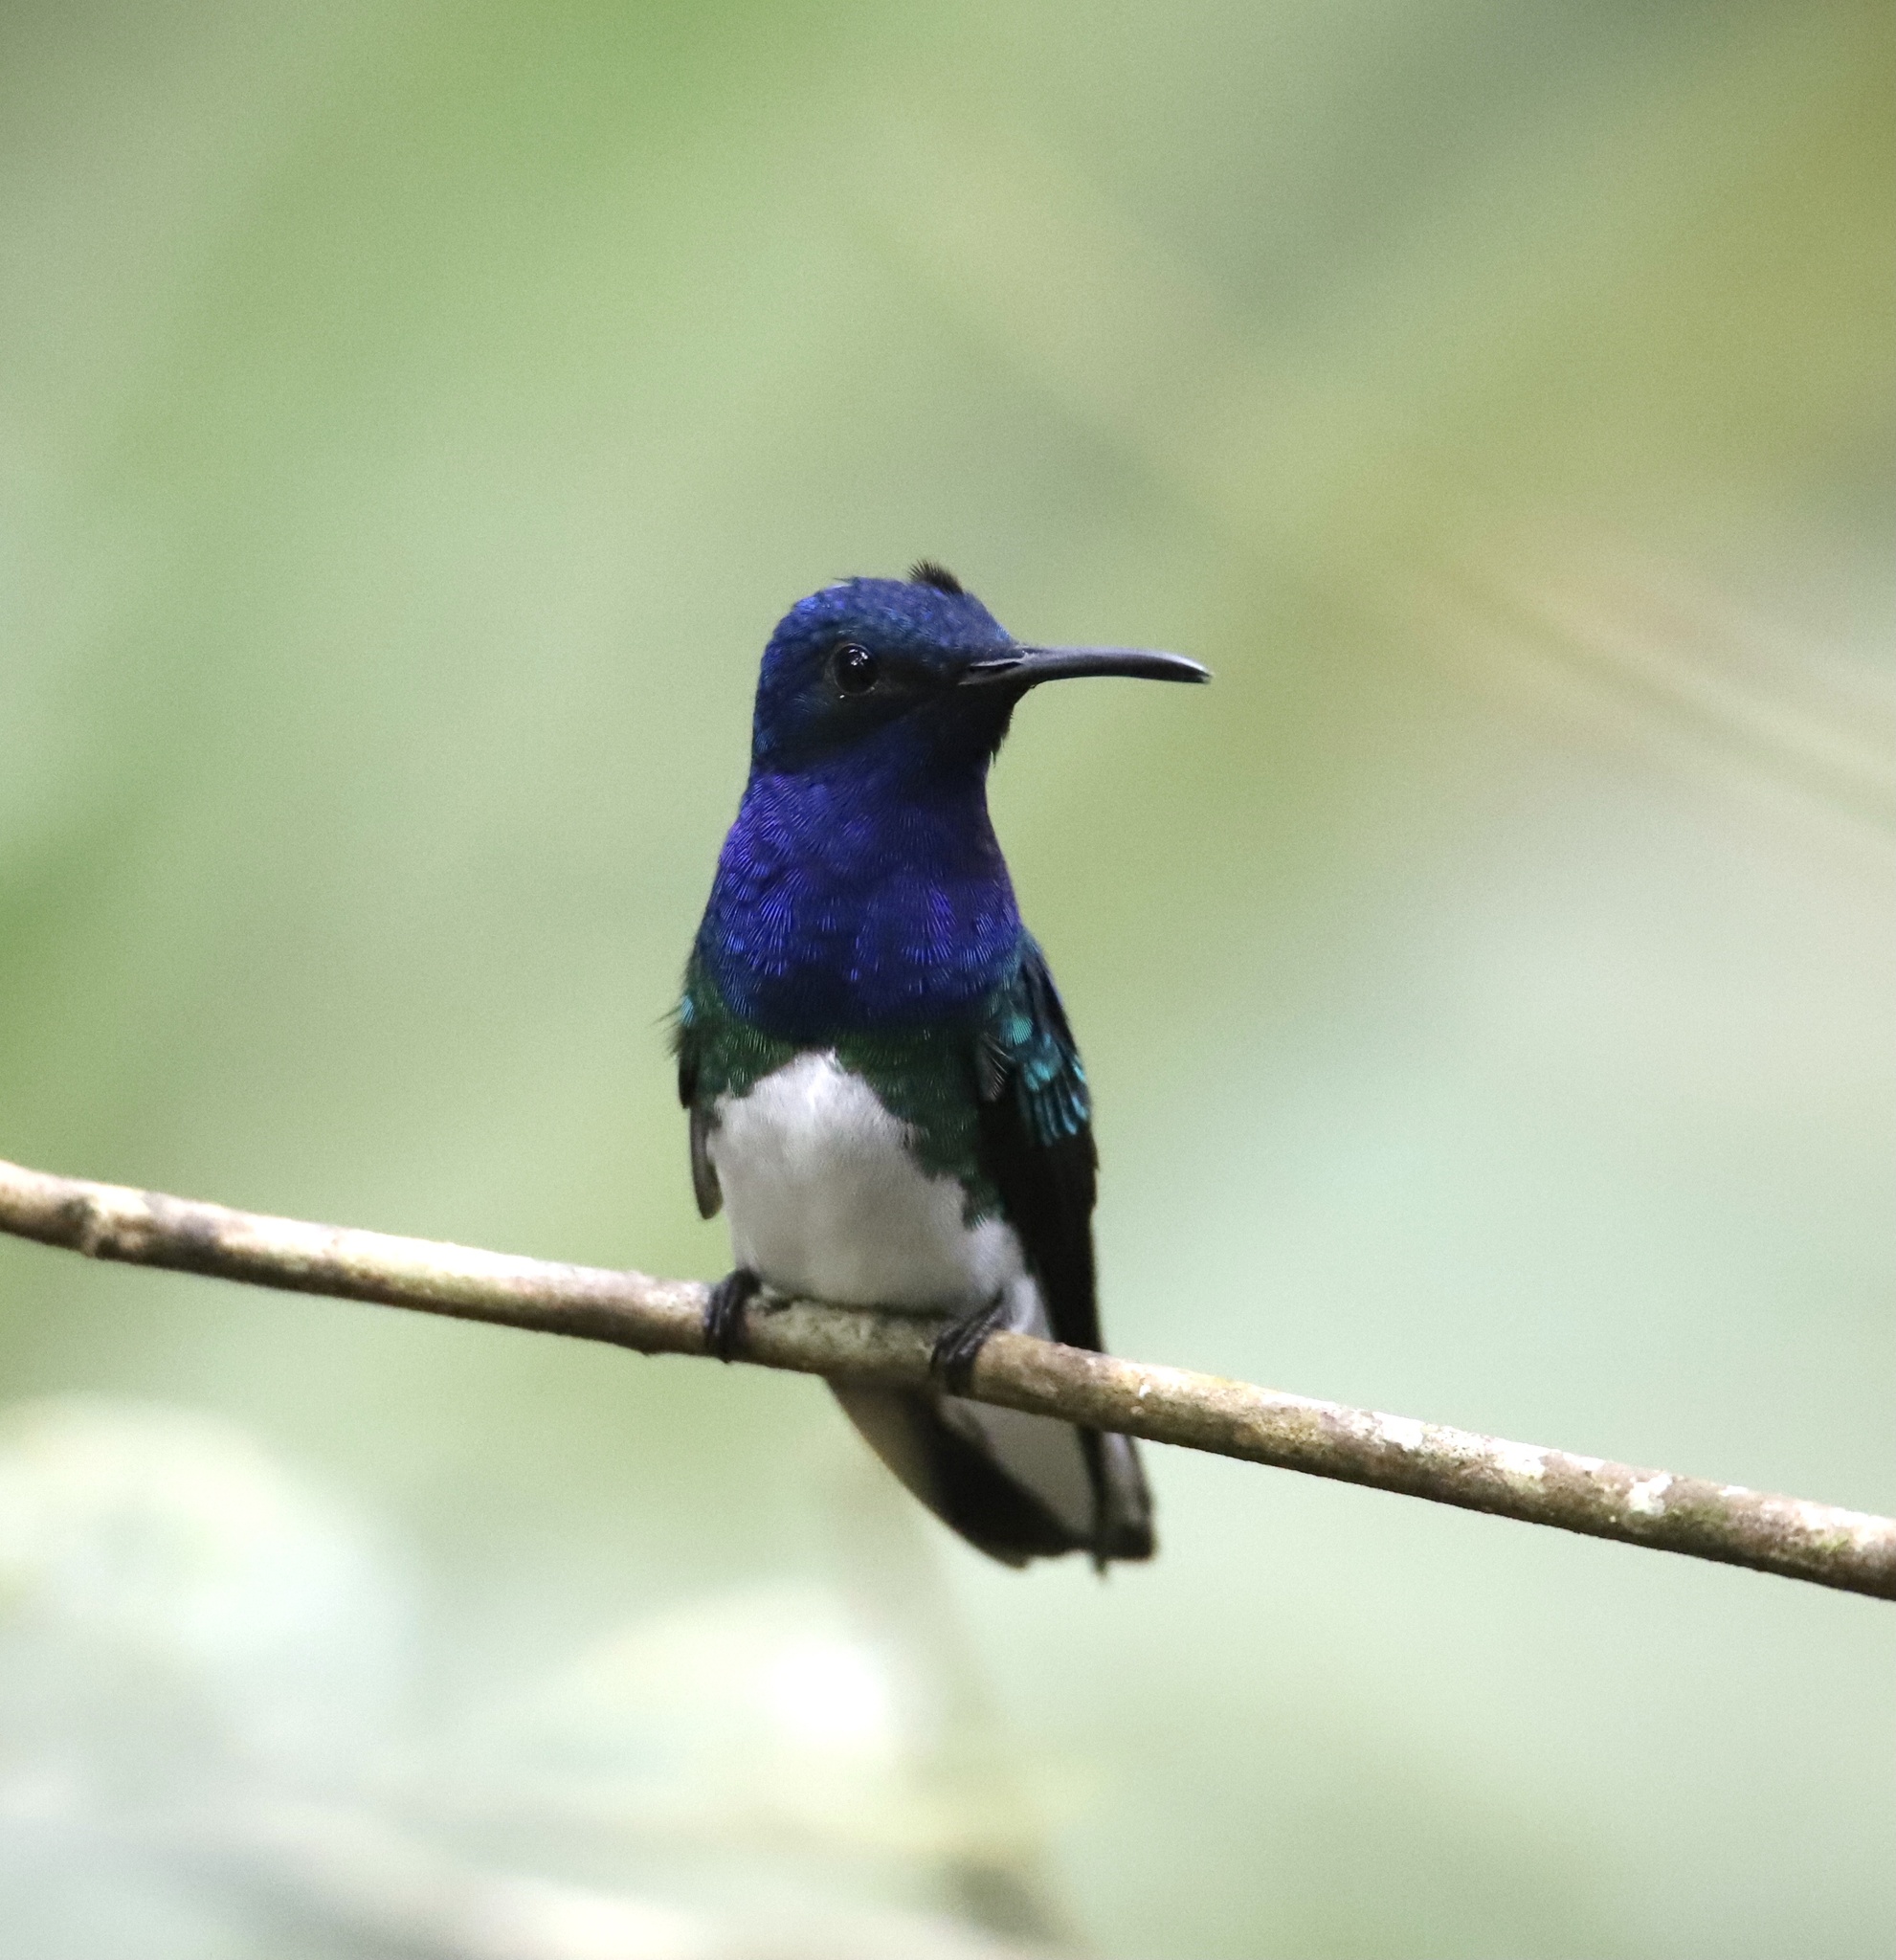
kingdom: Animalia
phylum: Chordata
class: Aves
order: Apodiformes
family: Trochilidae
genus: Florisuga
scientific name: Florisuga mellivora
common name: White-necked jacobin
